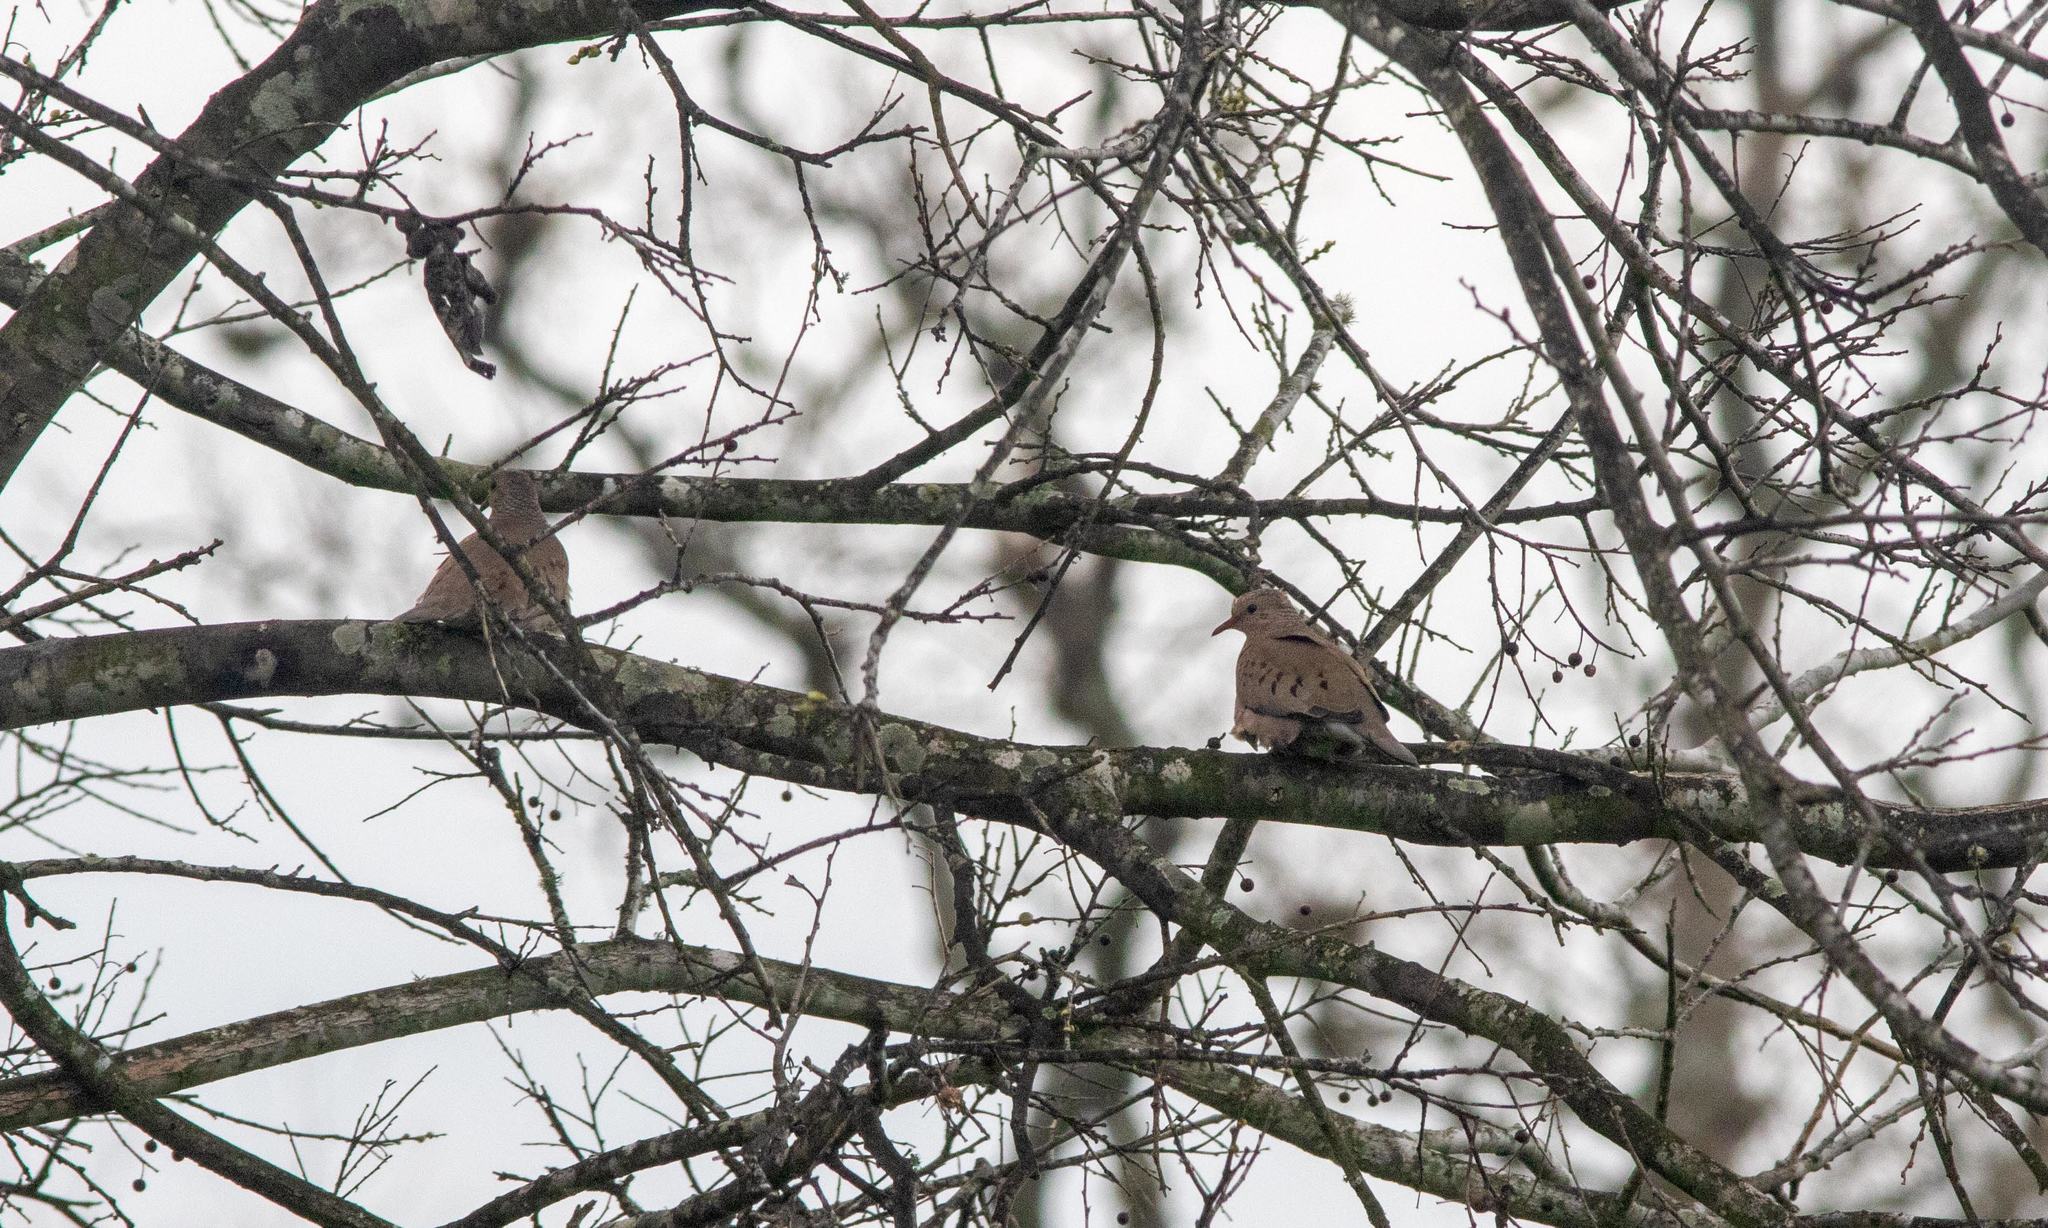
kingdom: Animalia
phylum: Chordata
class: Aves
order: Columbiformes
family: Columbidae
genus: Columbina
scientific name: Columbina passerina
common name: Common ground-dove
